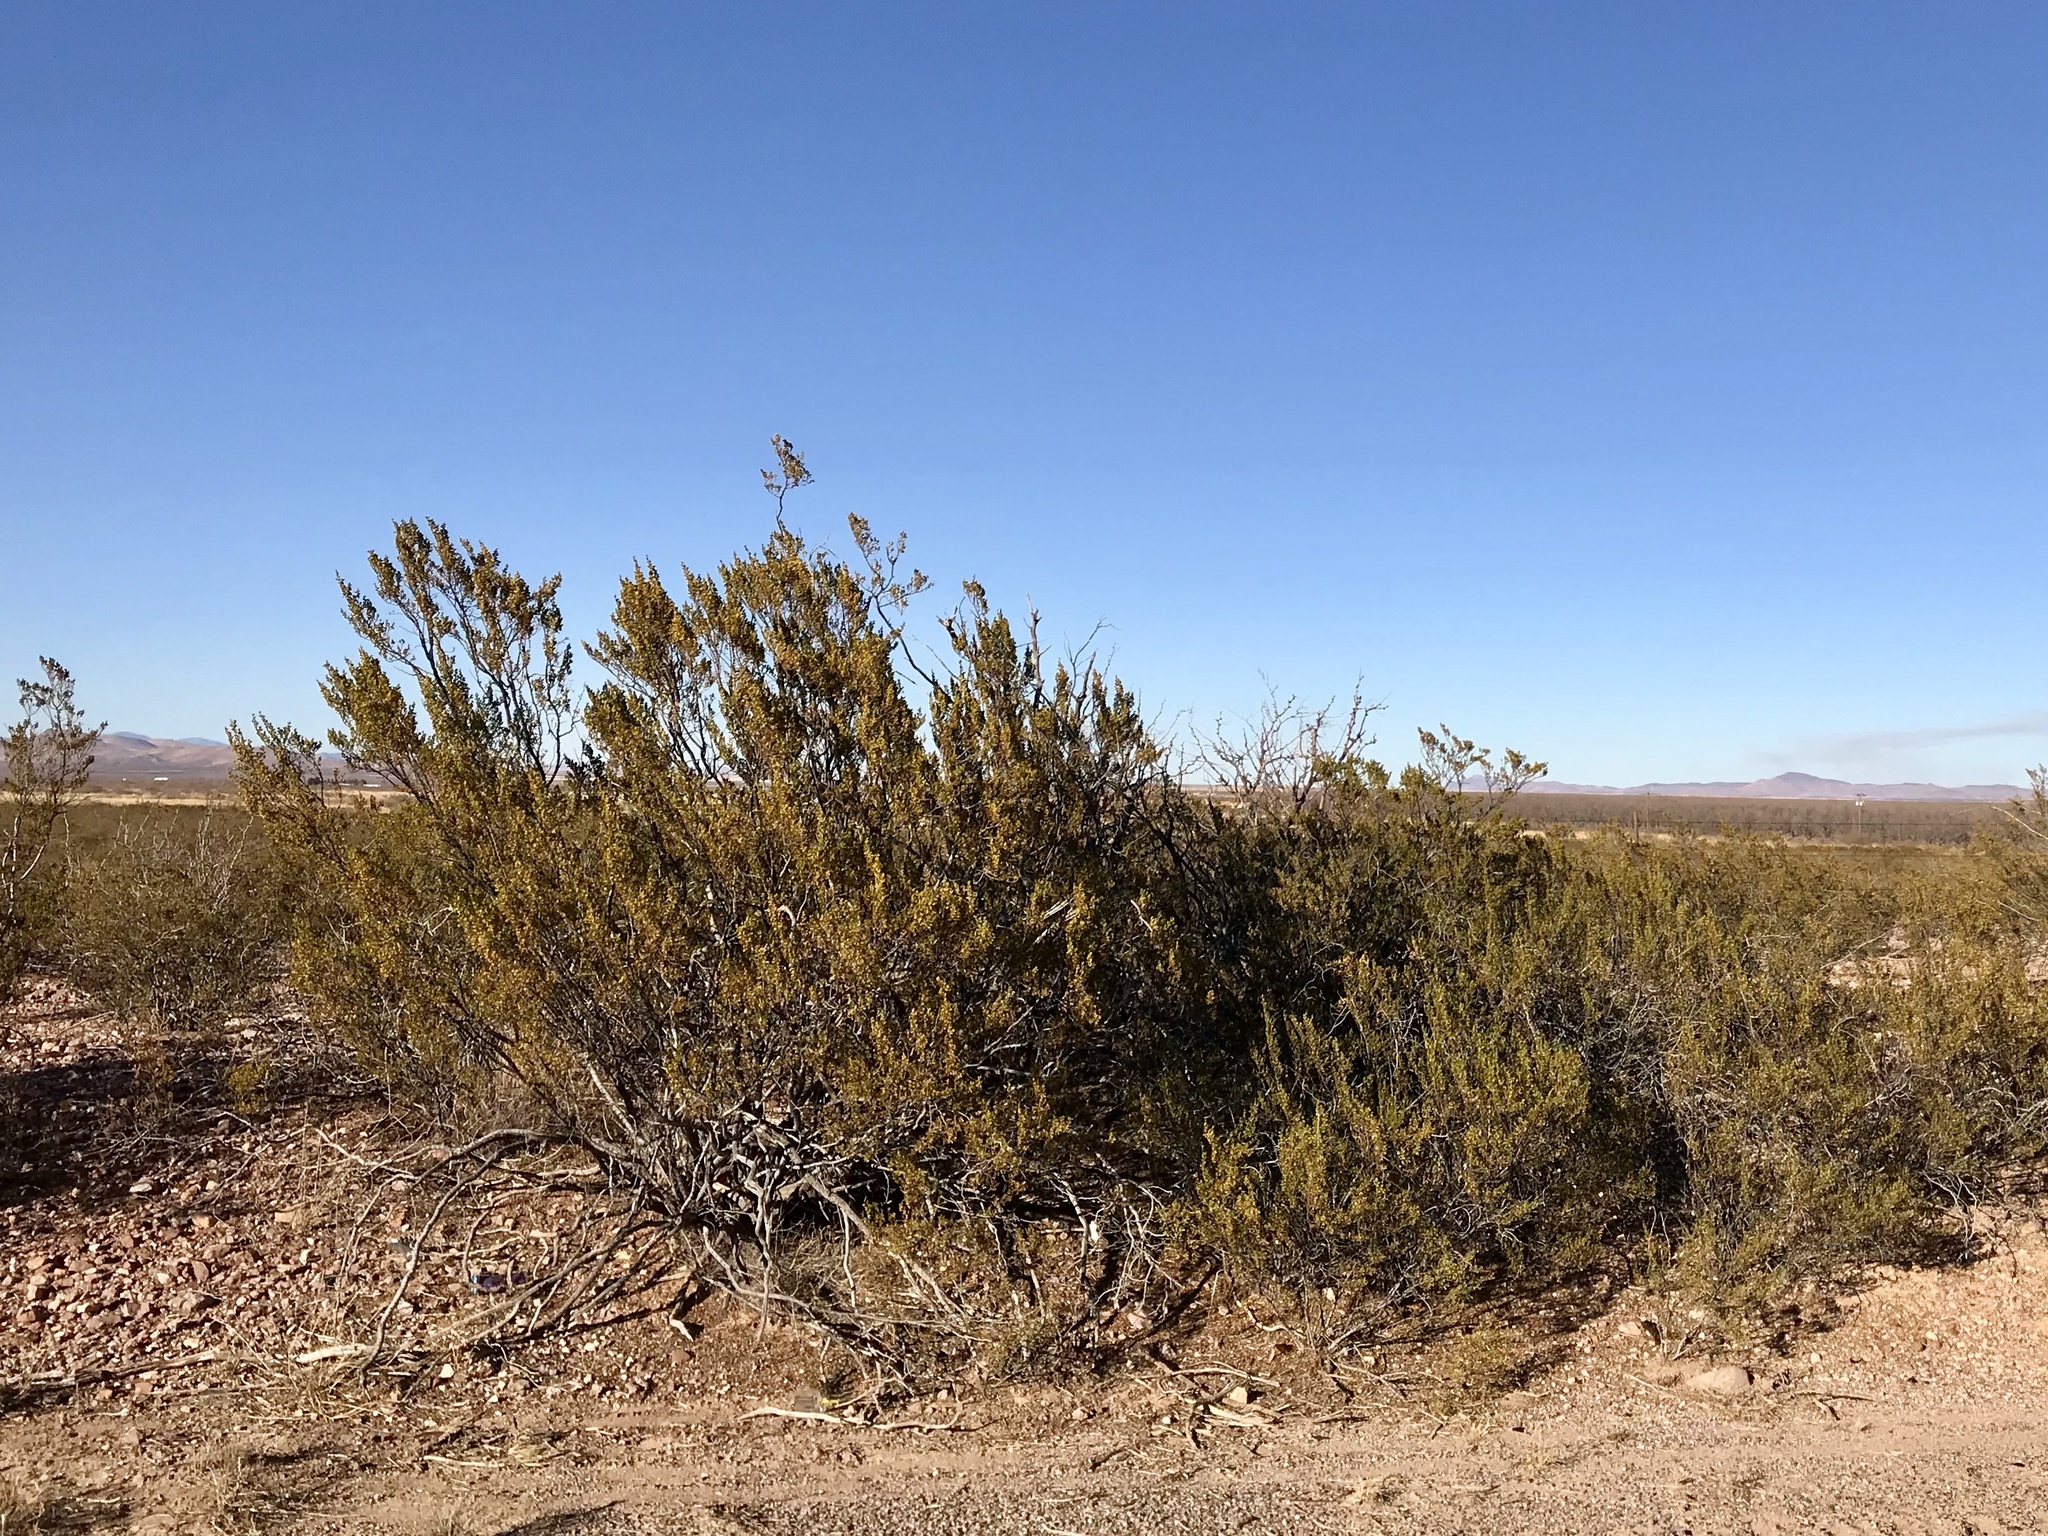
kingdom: Plantae
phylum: Tracheophyta
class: Magnoliopsida
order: Zygophyllales
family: Zygophyllaceae
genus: Larrea
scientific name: Larrea tridentata
